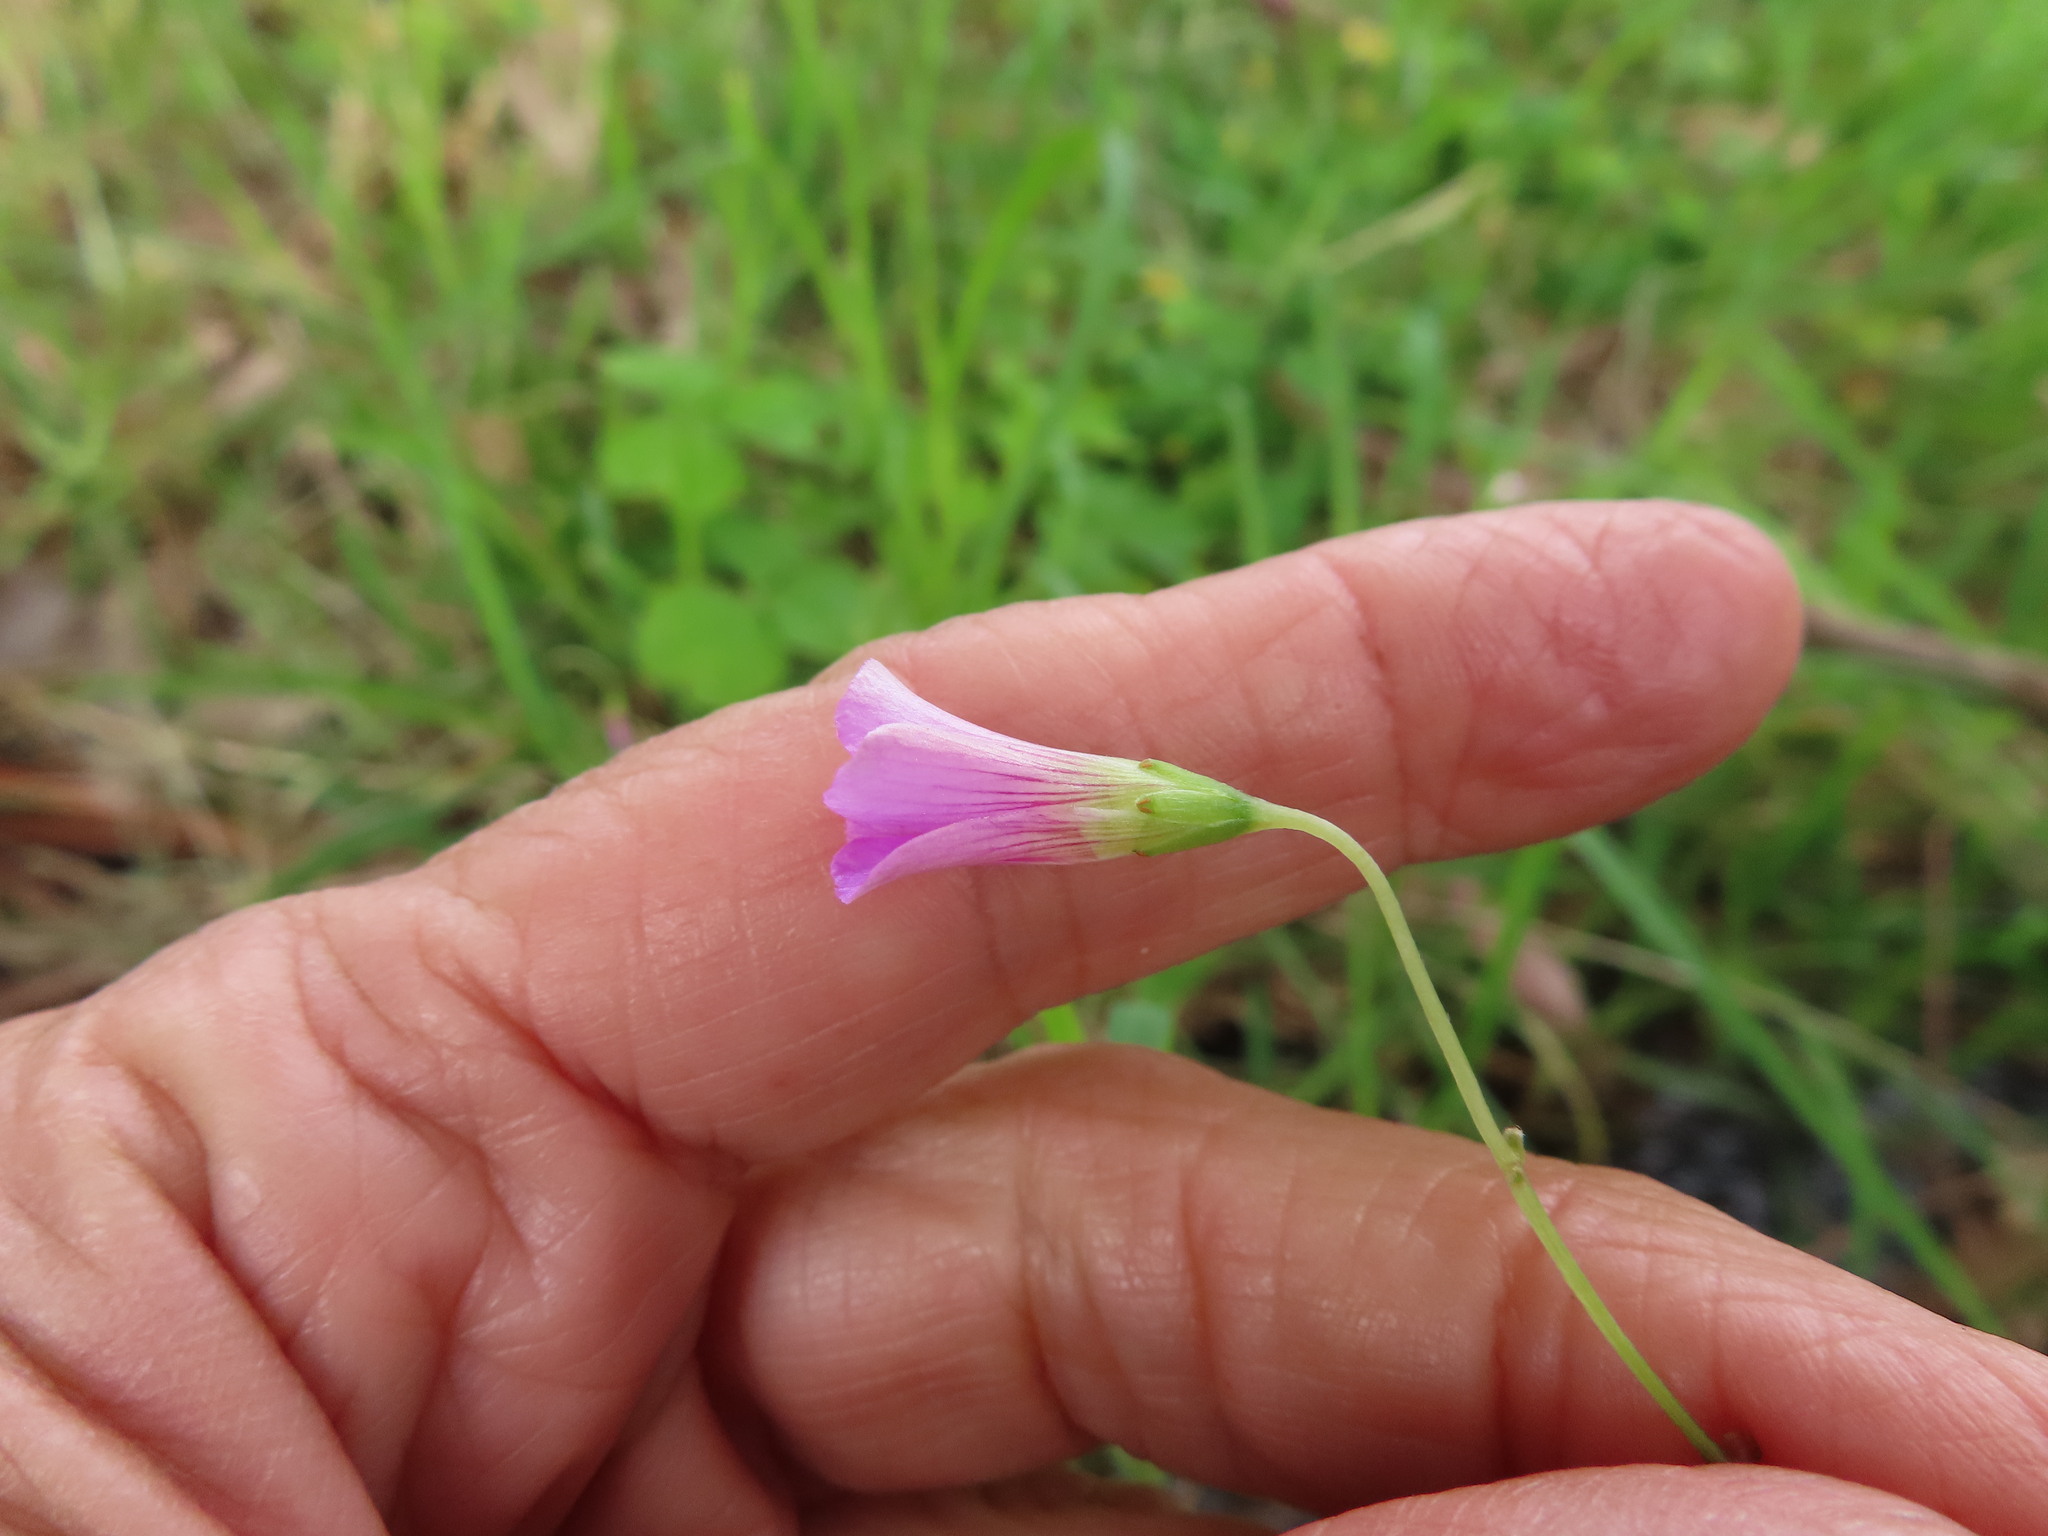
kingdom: Plantae
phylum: Tracheophyta
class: Magnoliopsida
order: Oxalidales
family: Oxalidaceae
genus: Oxalis
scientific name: Oxalis debilis
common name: Large-flowered pink-sorrel
